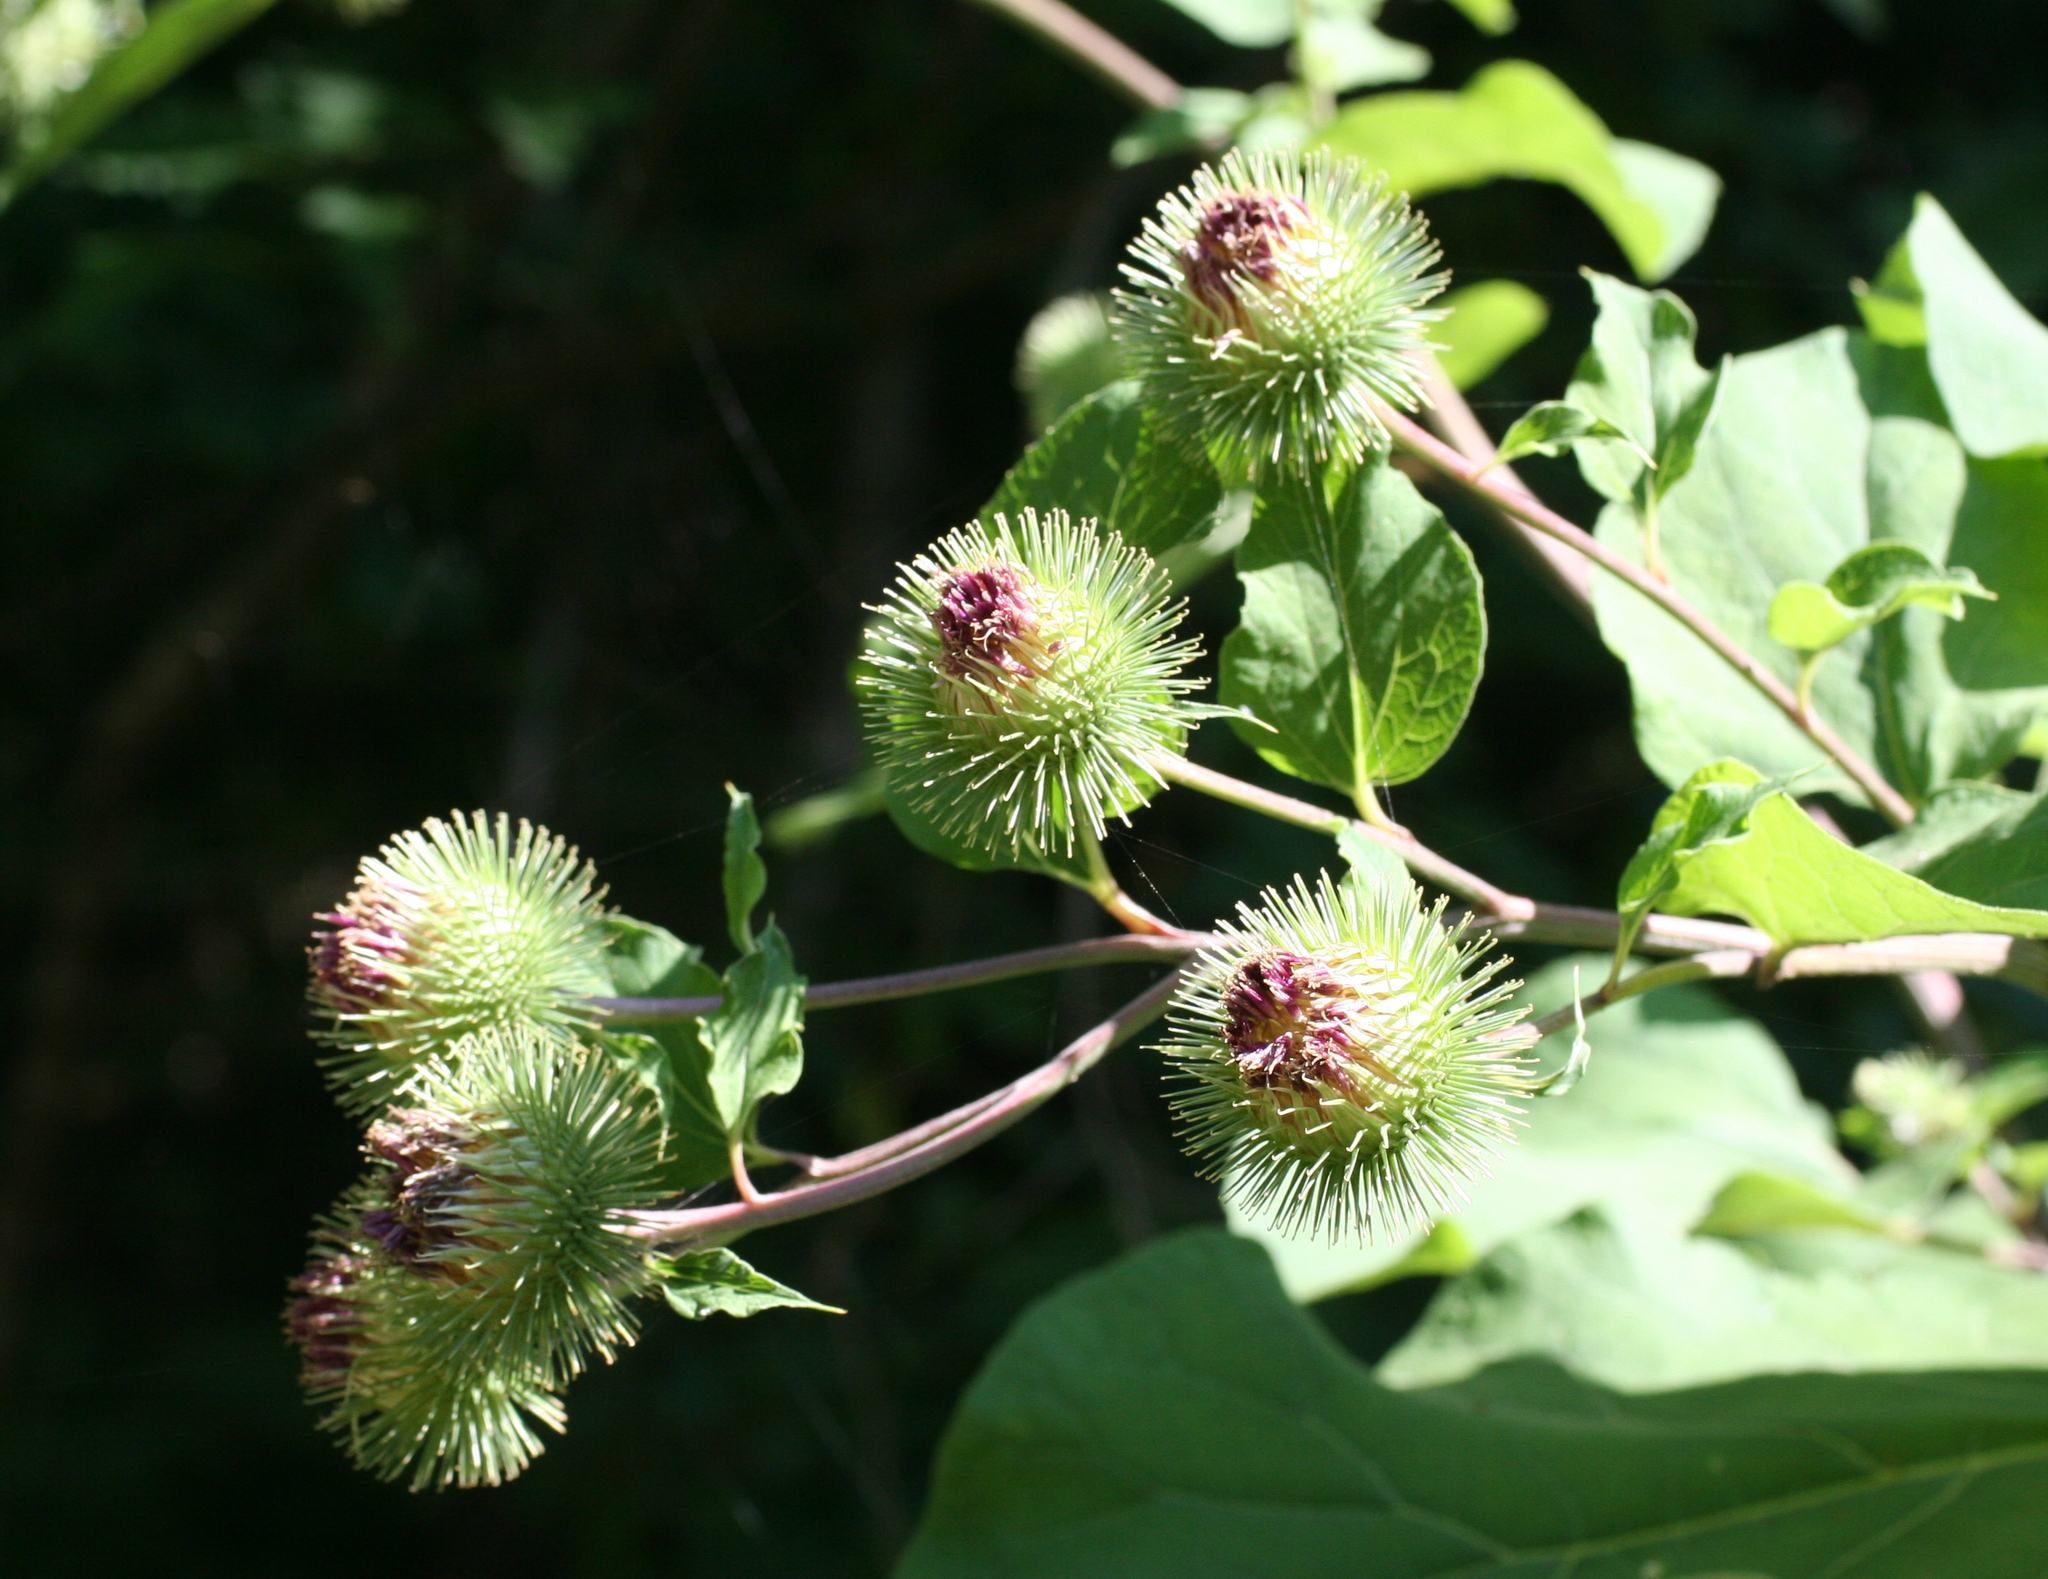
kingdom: Plantae
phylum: Tracheophyta
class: Magnoliopsida
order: Asterales
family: Asteraceae
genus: Arctium
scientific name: Arctium lappa
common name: Greater burdock
